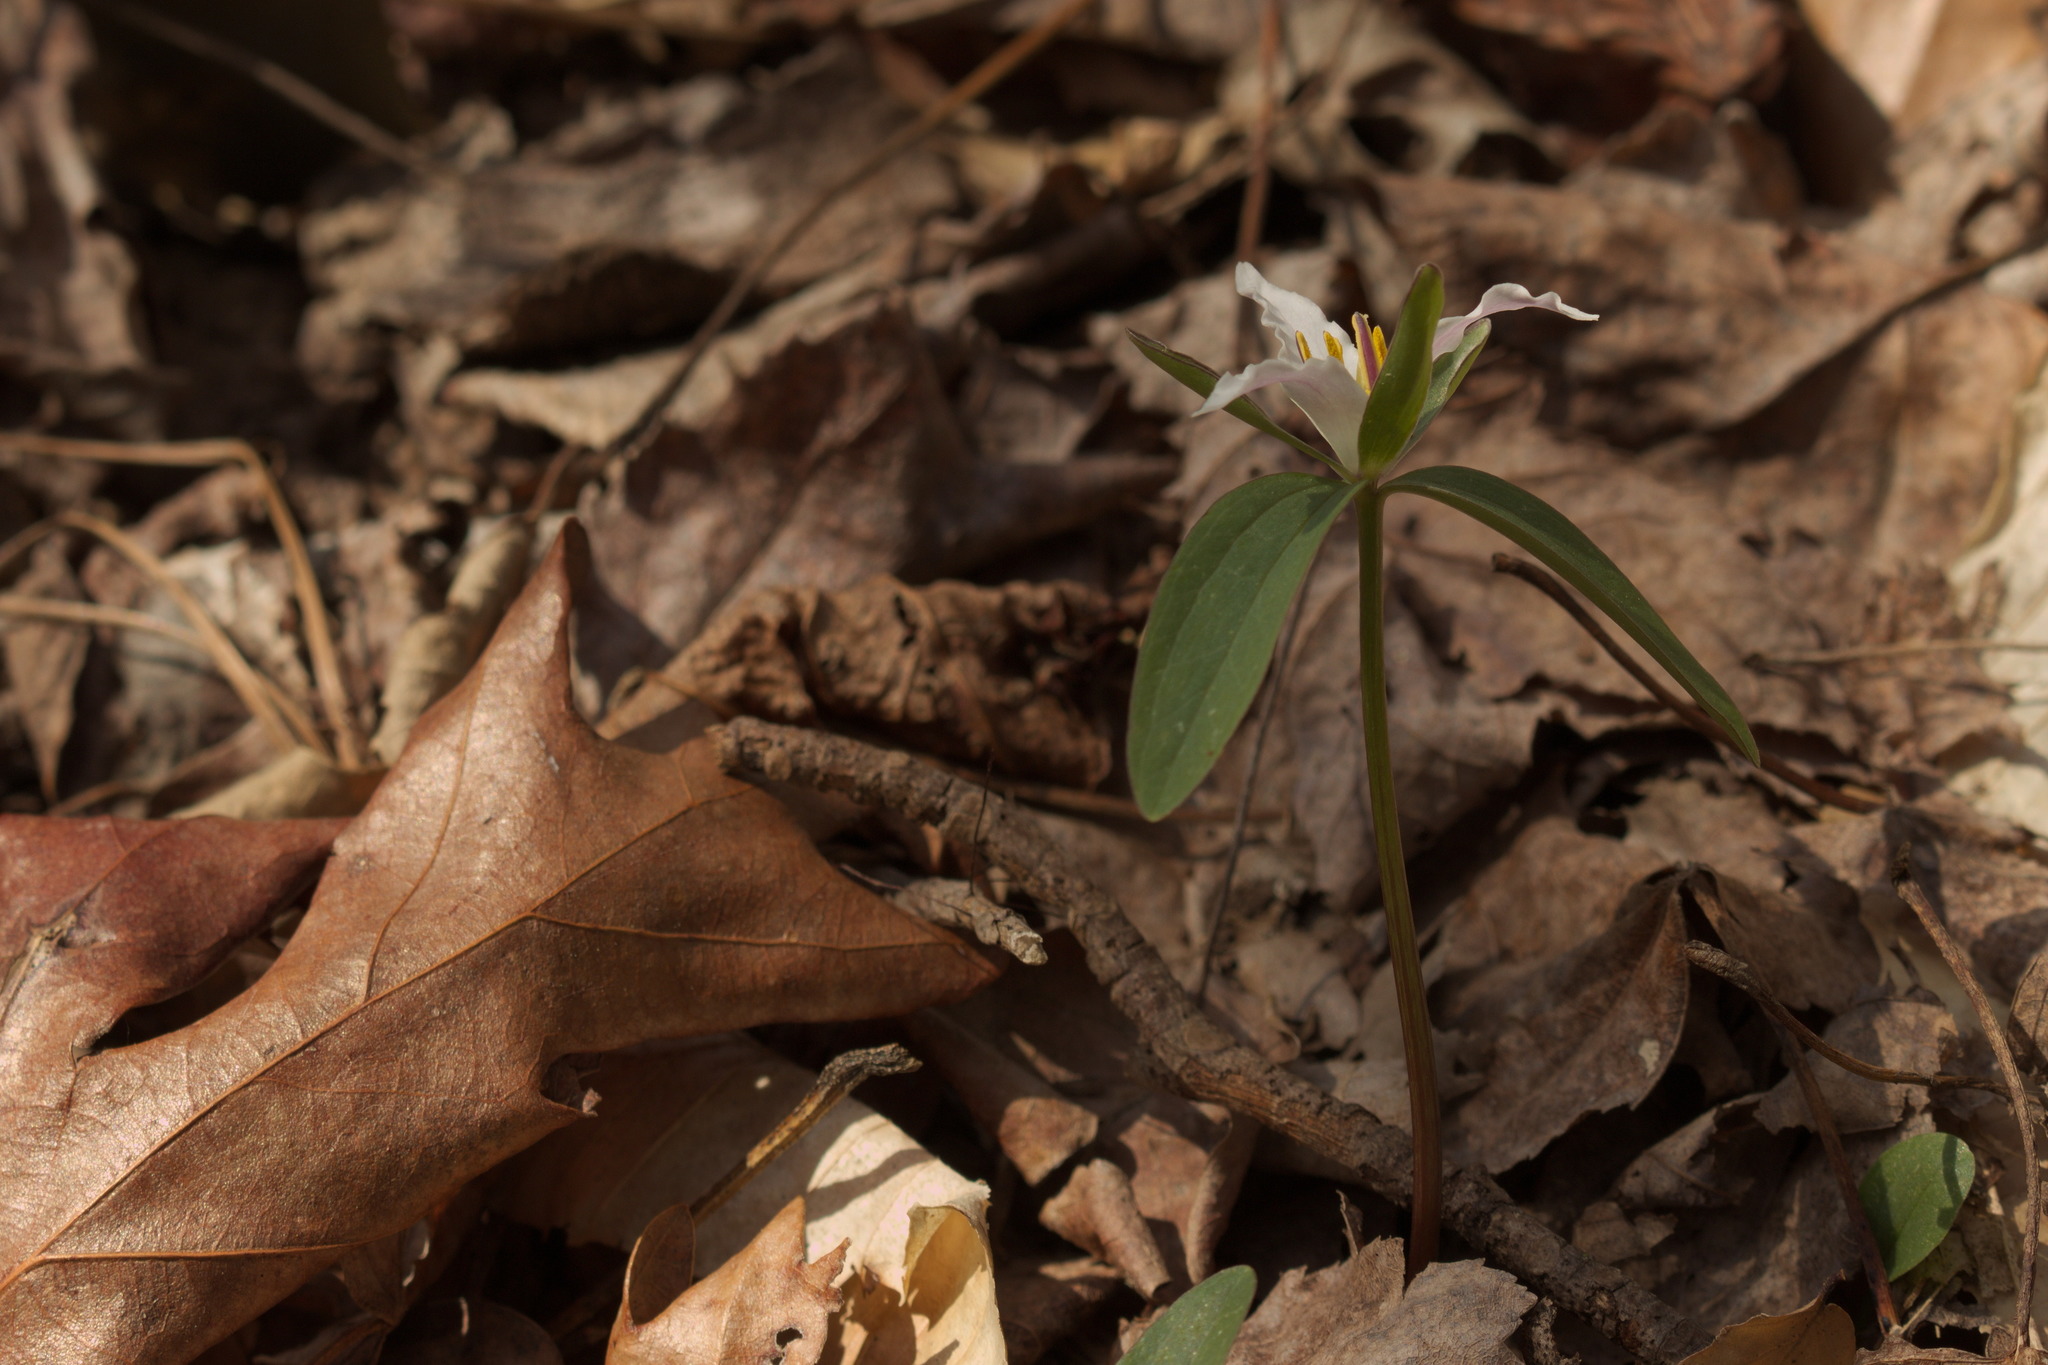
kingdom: Plantae
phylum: Tracheophyta
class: Liliopsida
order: Liliales
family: Melanthiaceae
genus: Trillium
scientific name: Trillium pusillum
